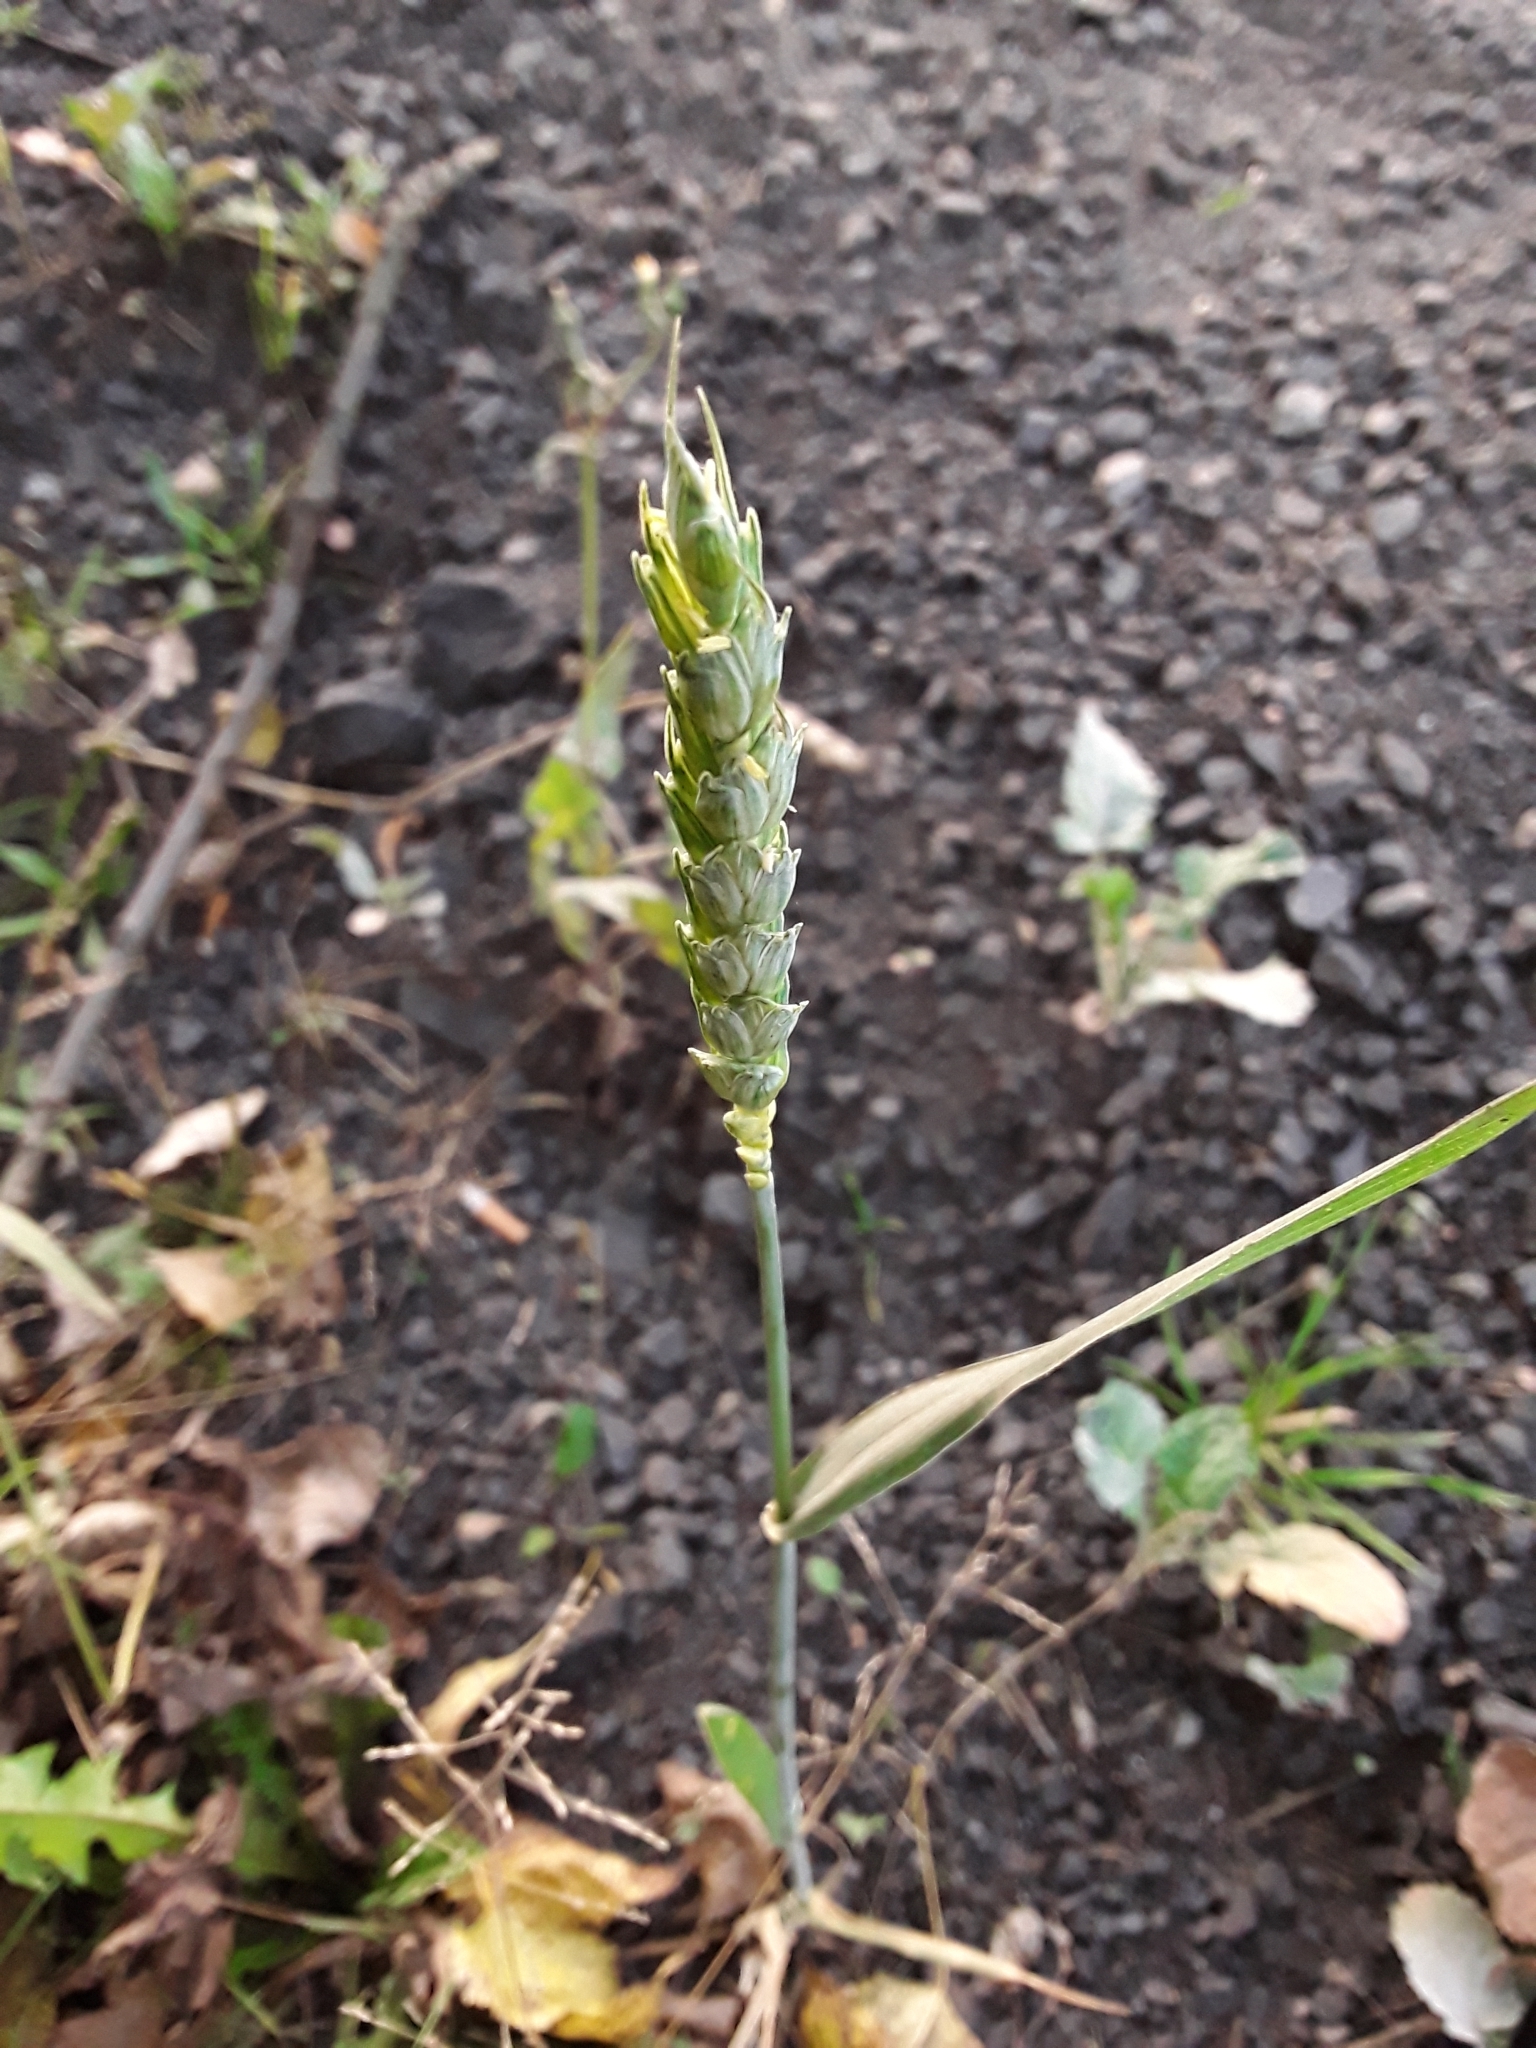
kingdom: Plantae
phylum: Tracheophyta
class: Liliopsida
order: Poales
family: Poaceae
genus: Triticum
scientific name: Triticum aestivum
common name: Common wheat
